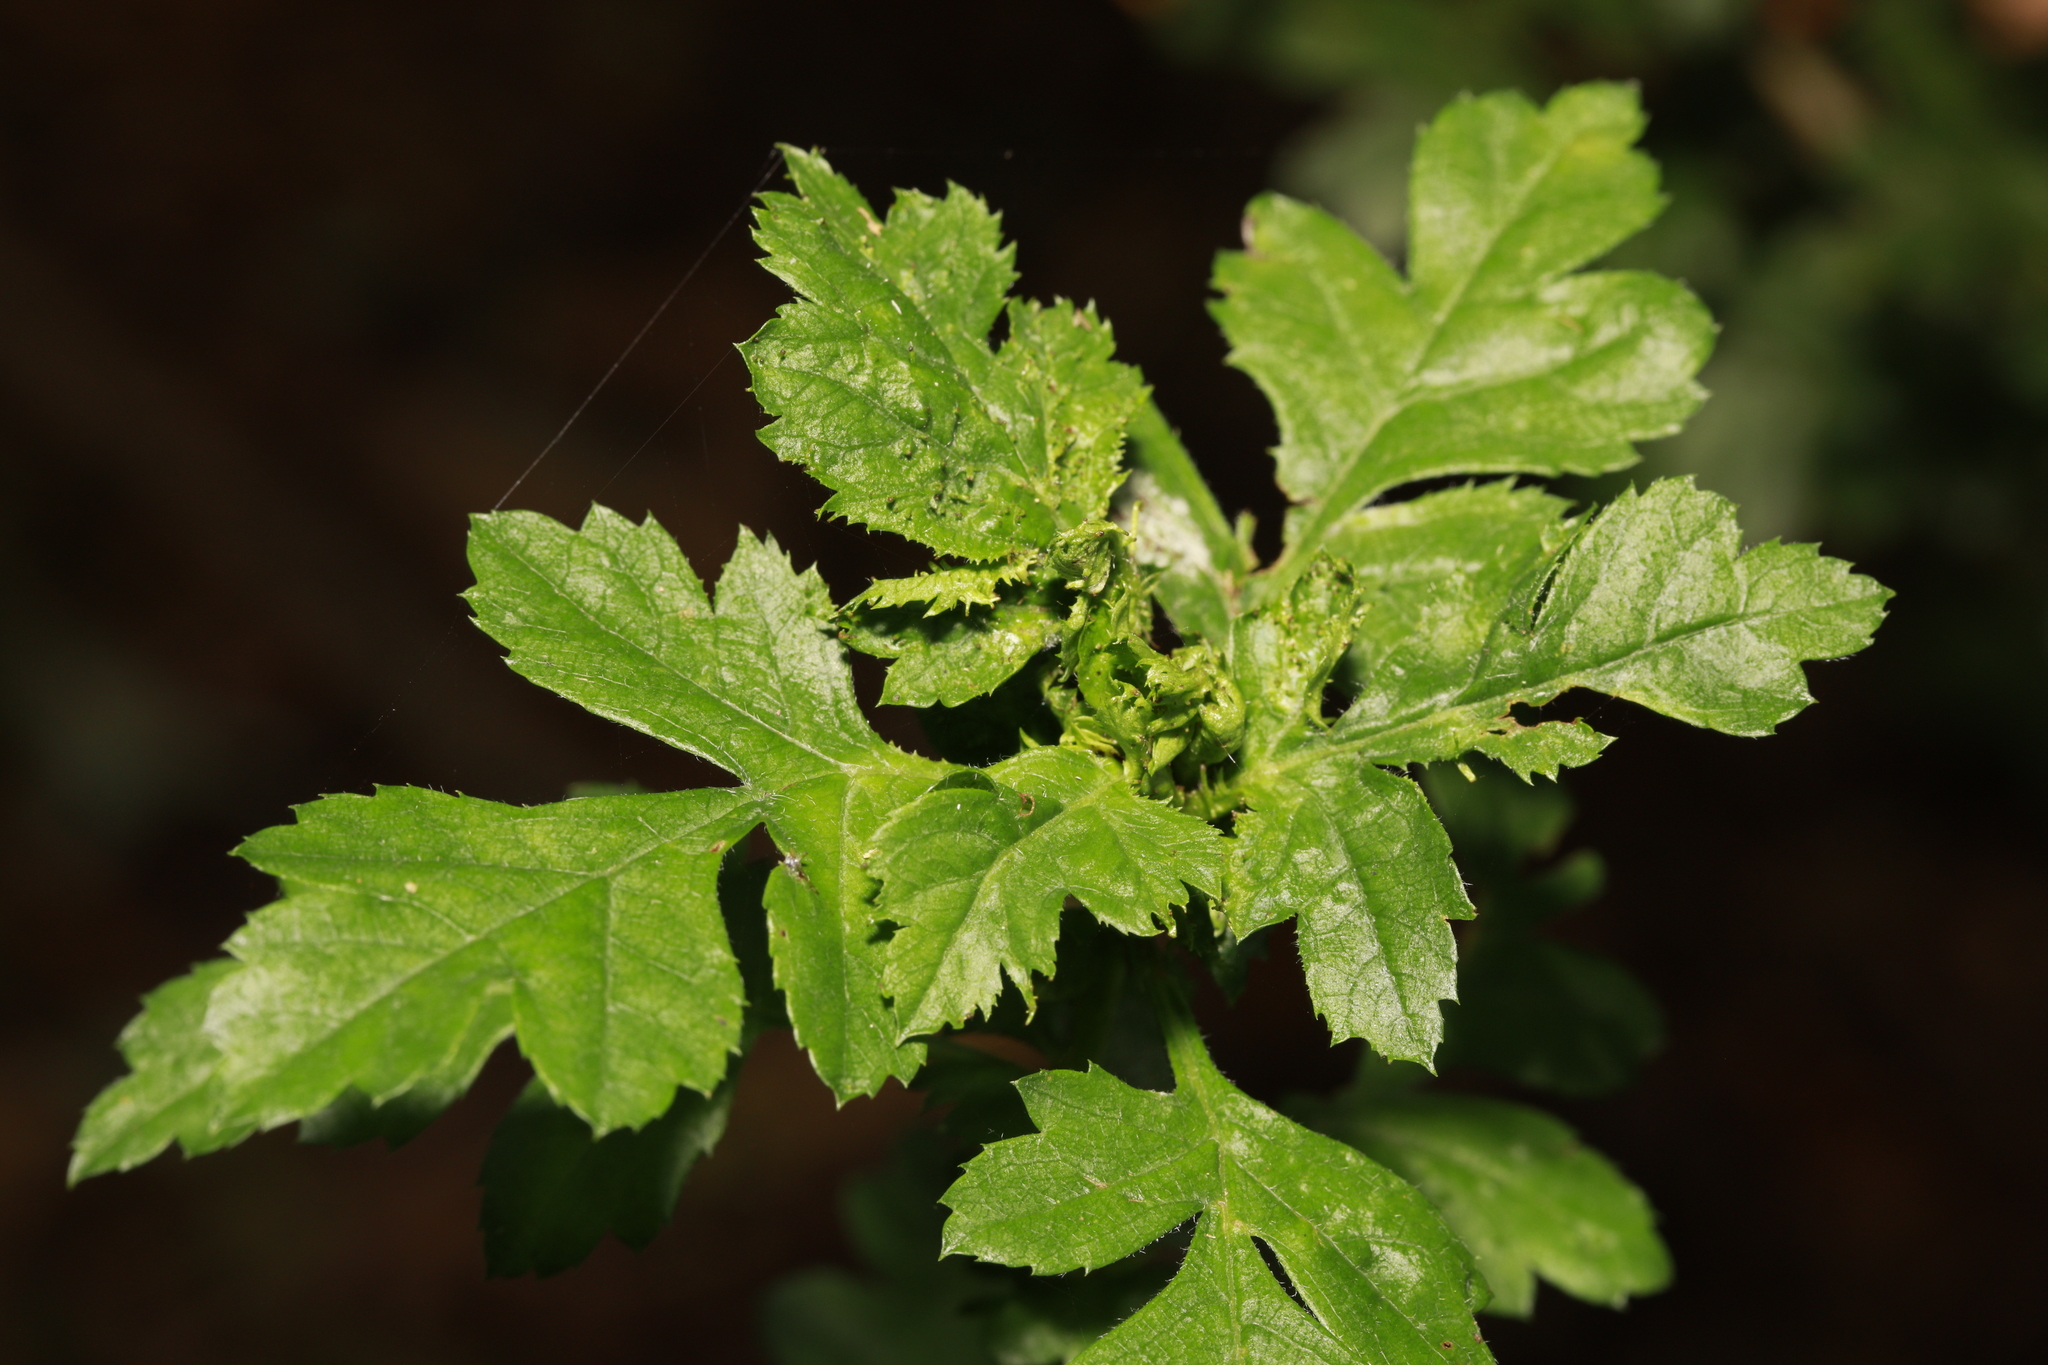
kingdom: Animalia
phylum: Arthropoda
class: Insecta
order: Diptera
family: Cecidomyiidae
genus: Dasineura
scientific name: Dasineura crataegi
